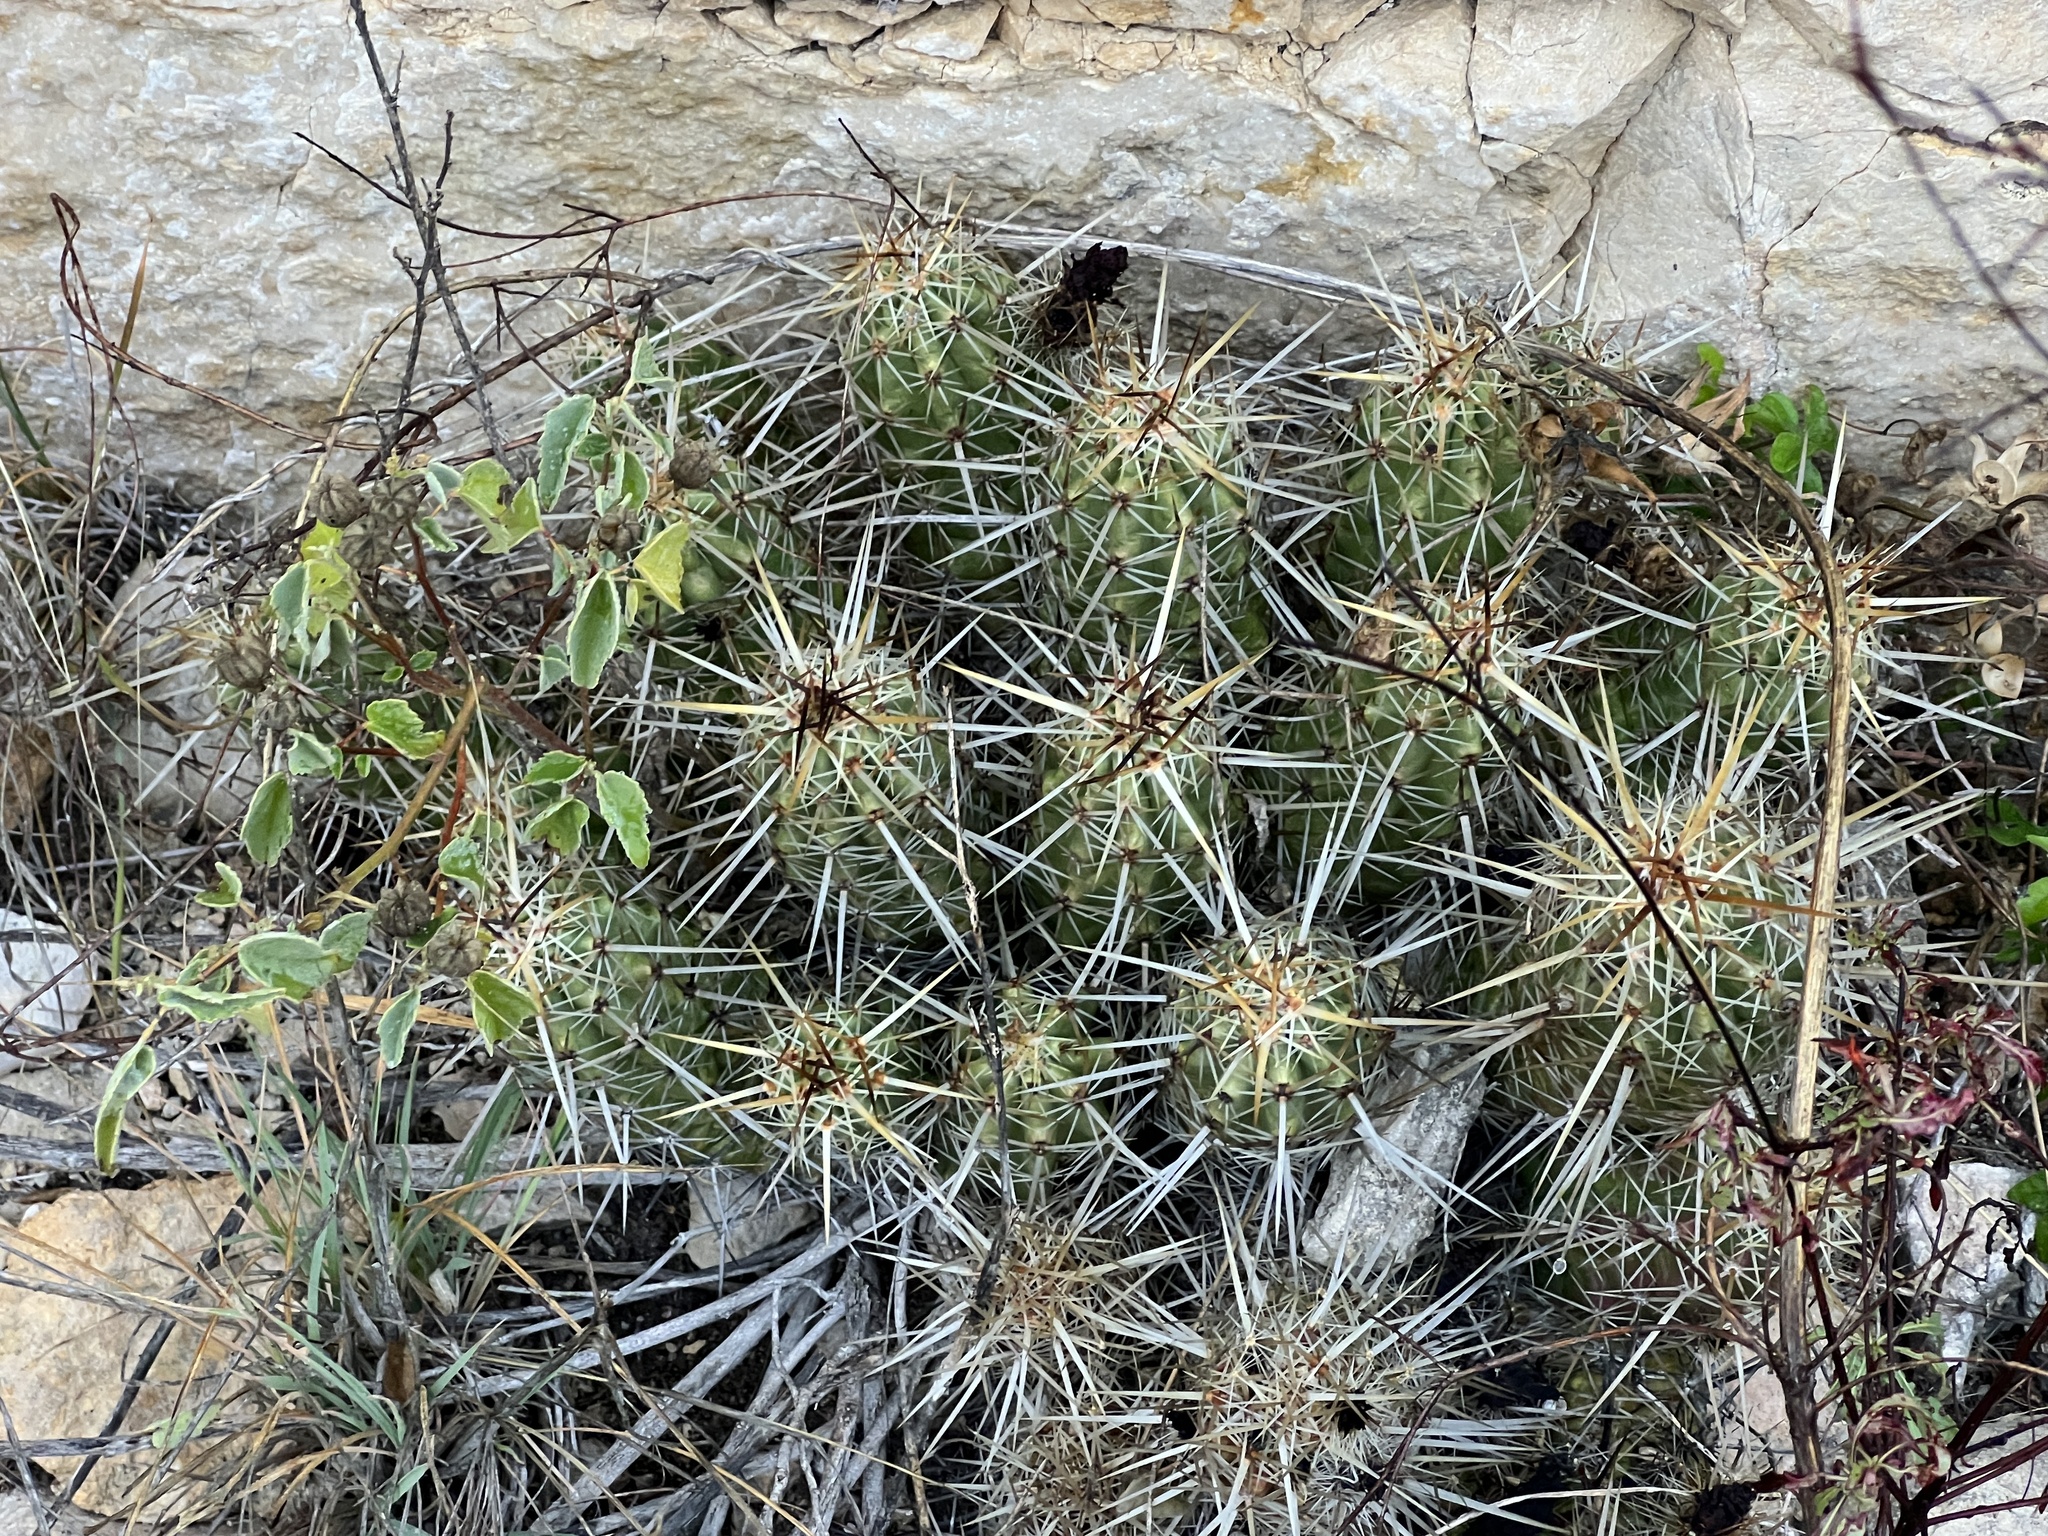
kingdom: Plantae
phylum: Tracheophyta
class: Magnoliopsida
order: Caryophyllales
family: Cactaceae
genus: Echinocereus
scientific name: Echinocereus enneacanthus
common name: Pitaya
